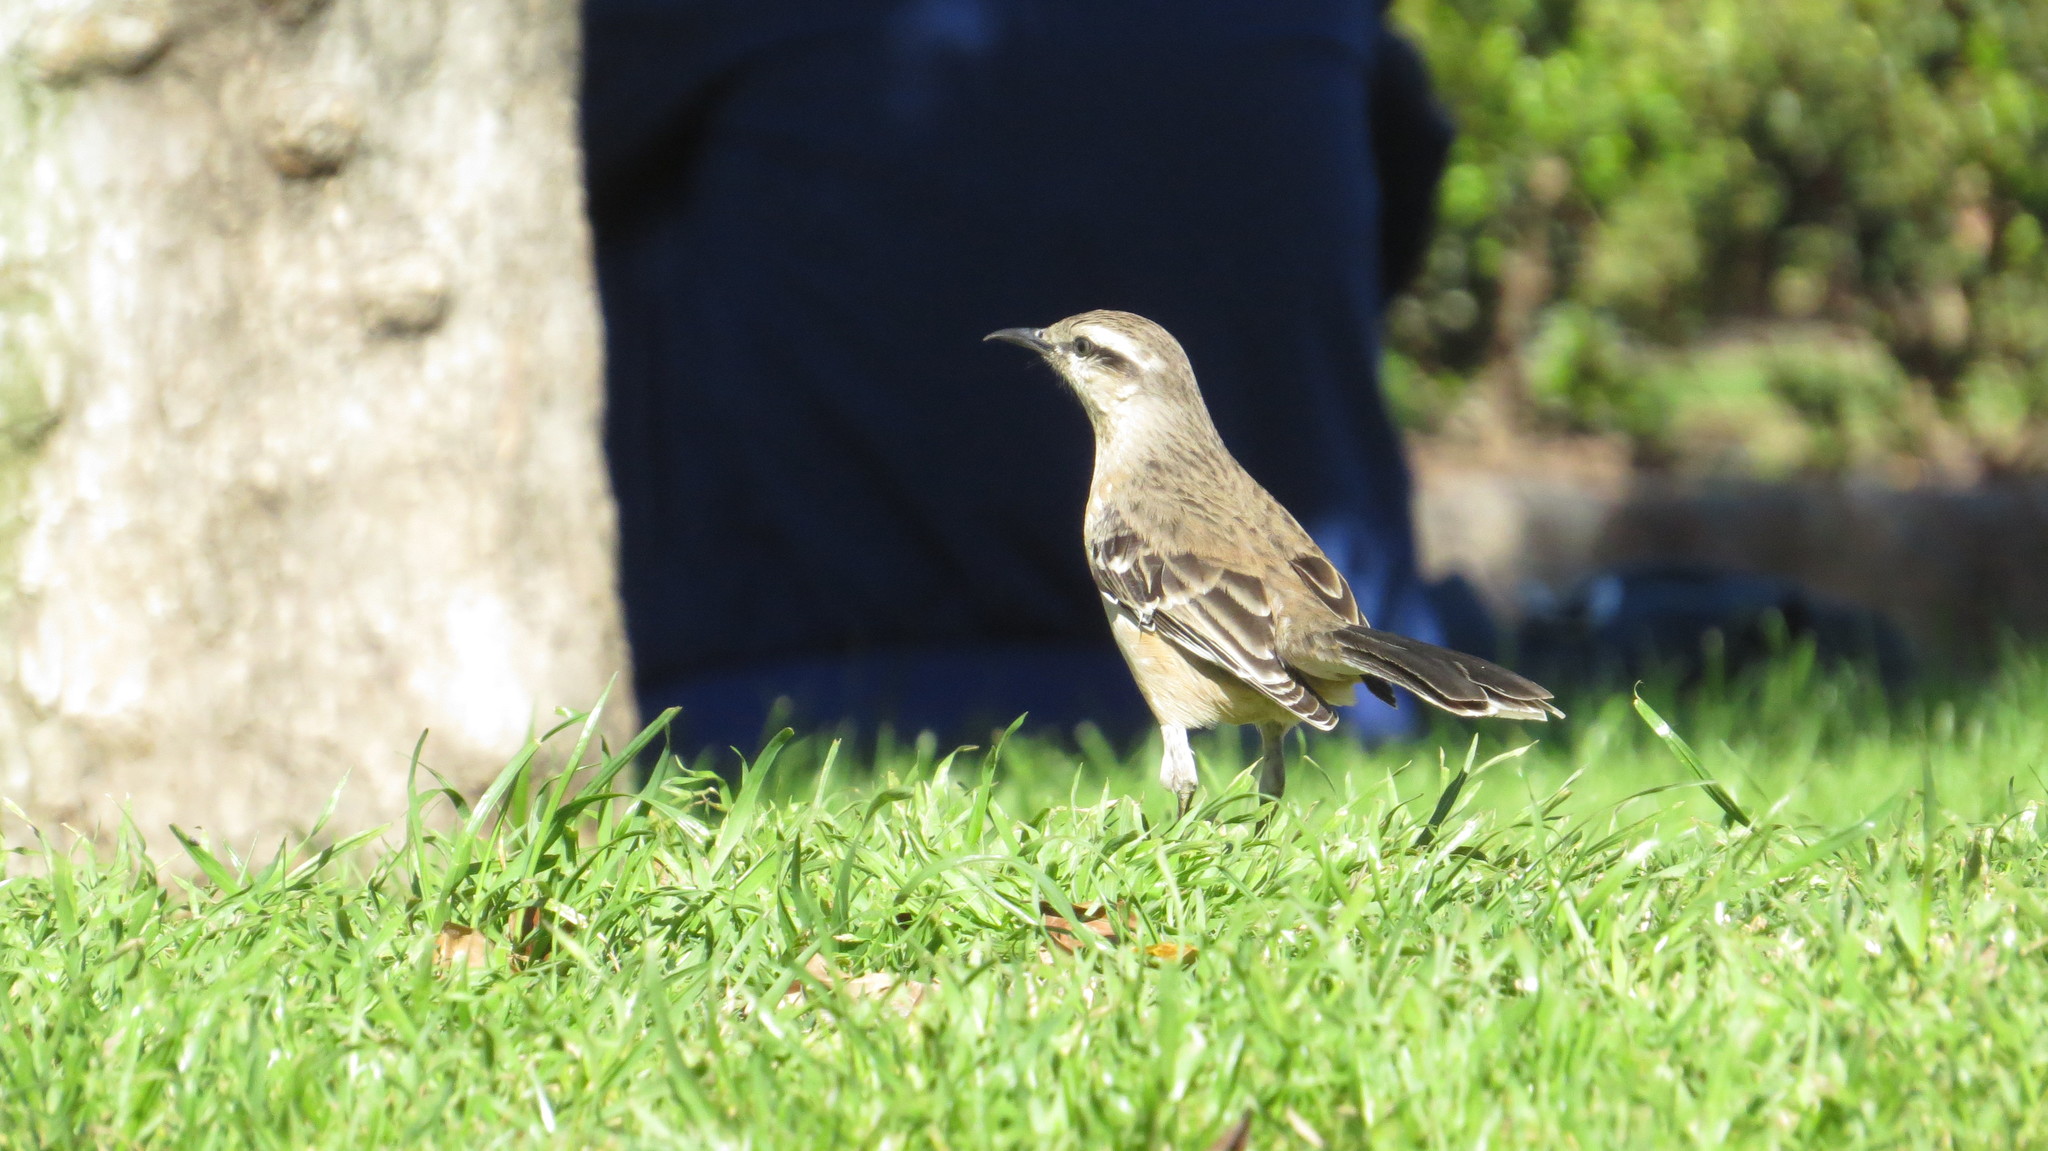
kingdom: Animalia
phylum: Chordata
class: Aves
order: Passeriformes
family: Mimidae
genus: Mimus
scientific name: Mimus saturninus
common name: Chalk-browed mockingbird
